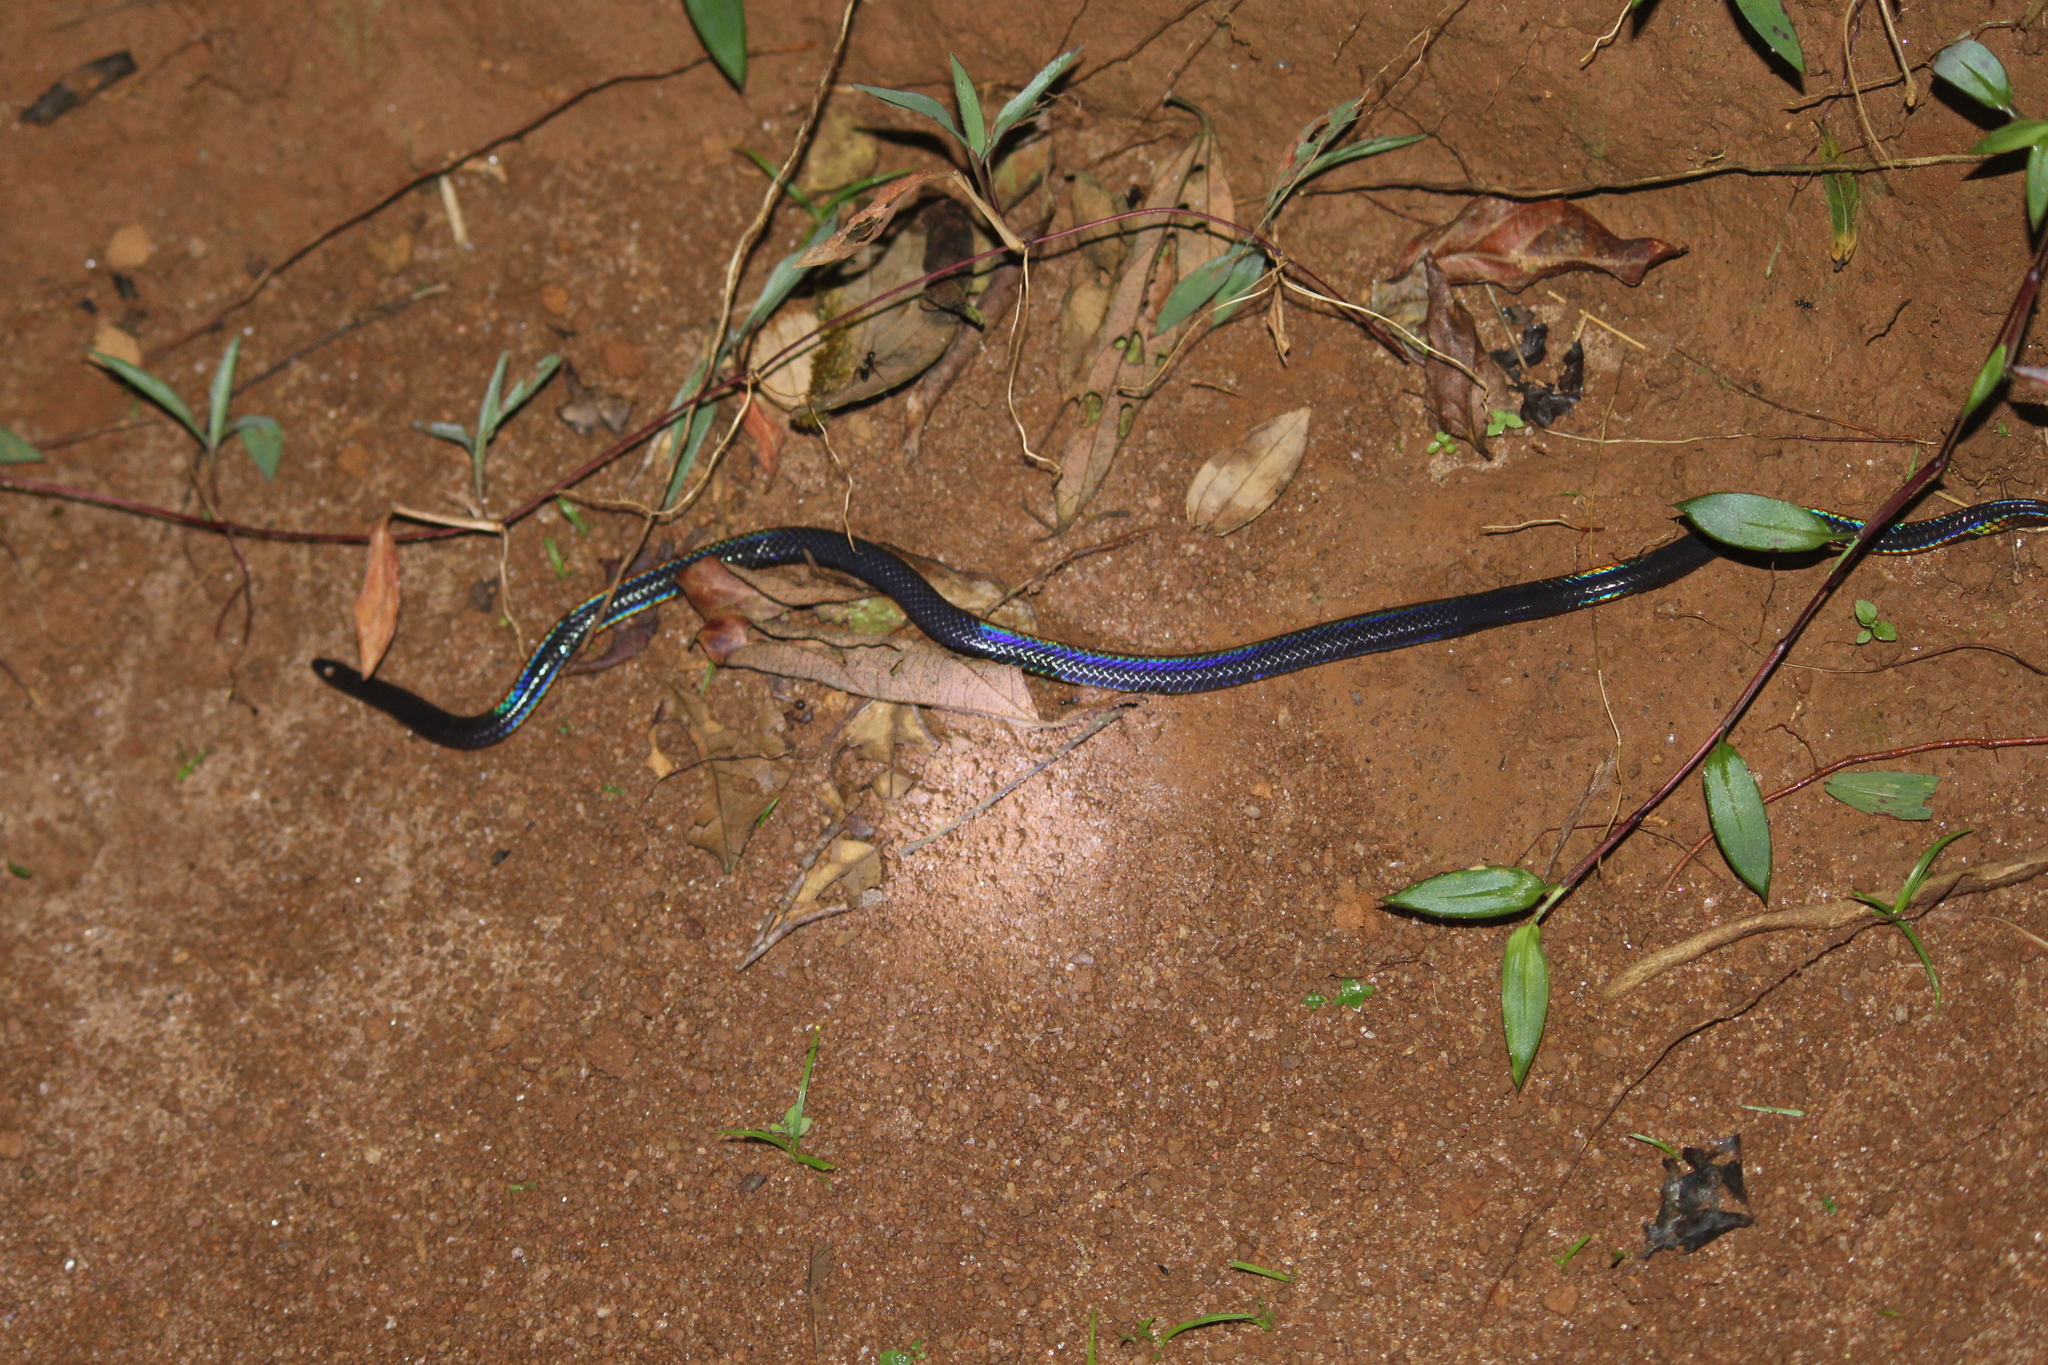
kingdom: Animalia
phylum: Chordata
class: Squamata
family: Uropeltidae
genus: Melanophidium
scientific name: Melanophidium wynaudense
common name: Indian black earth snake
